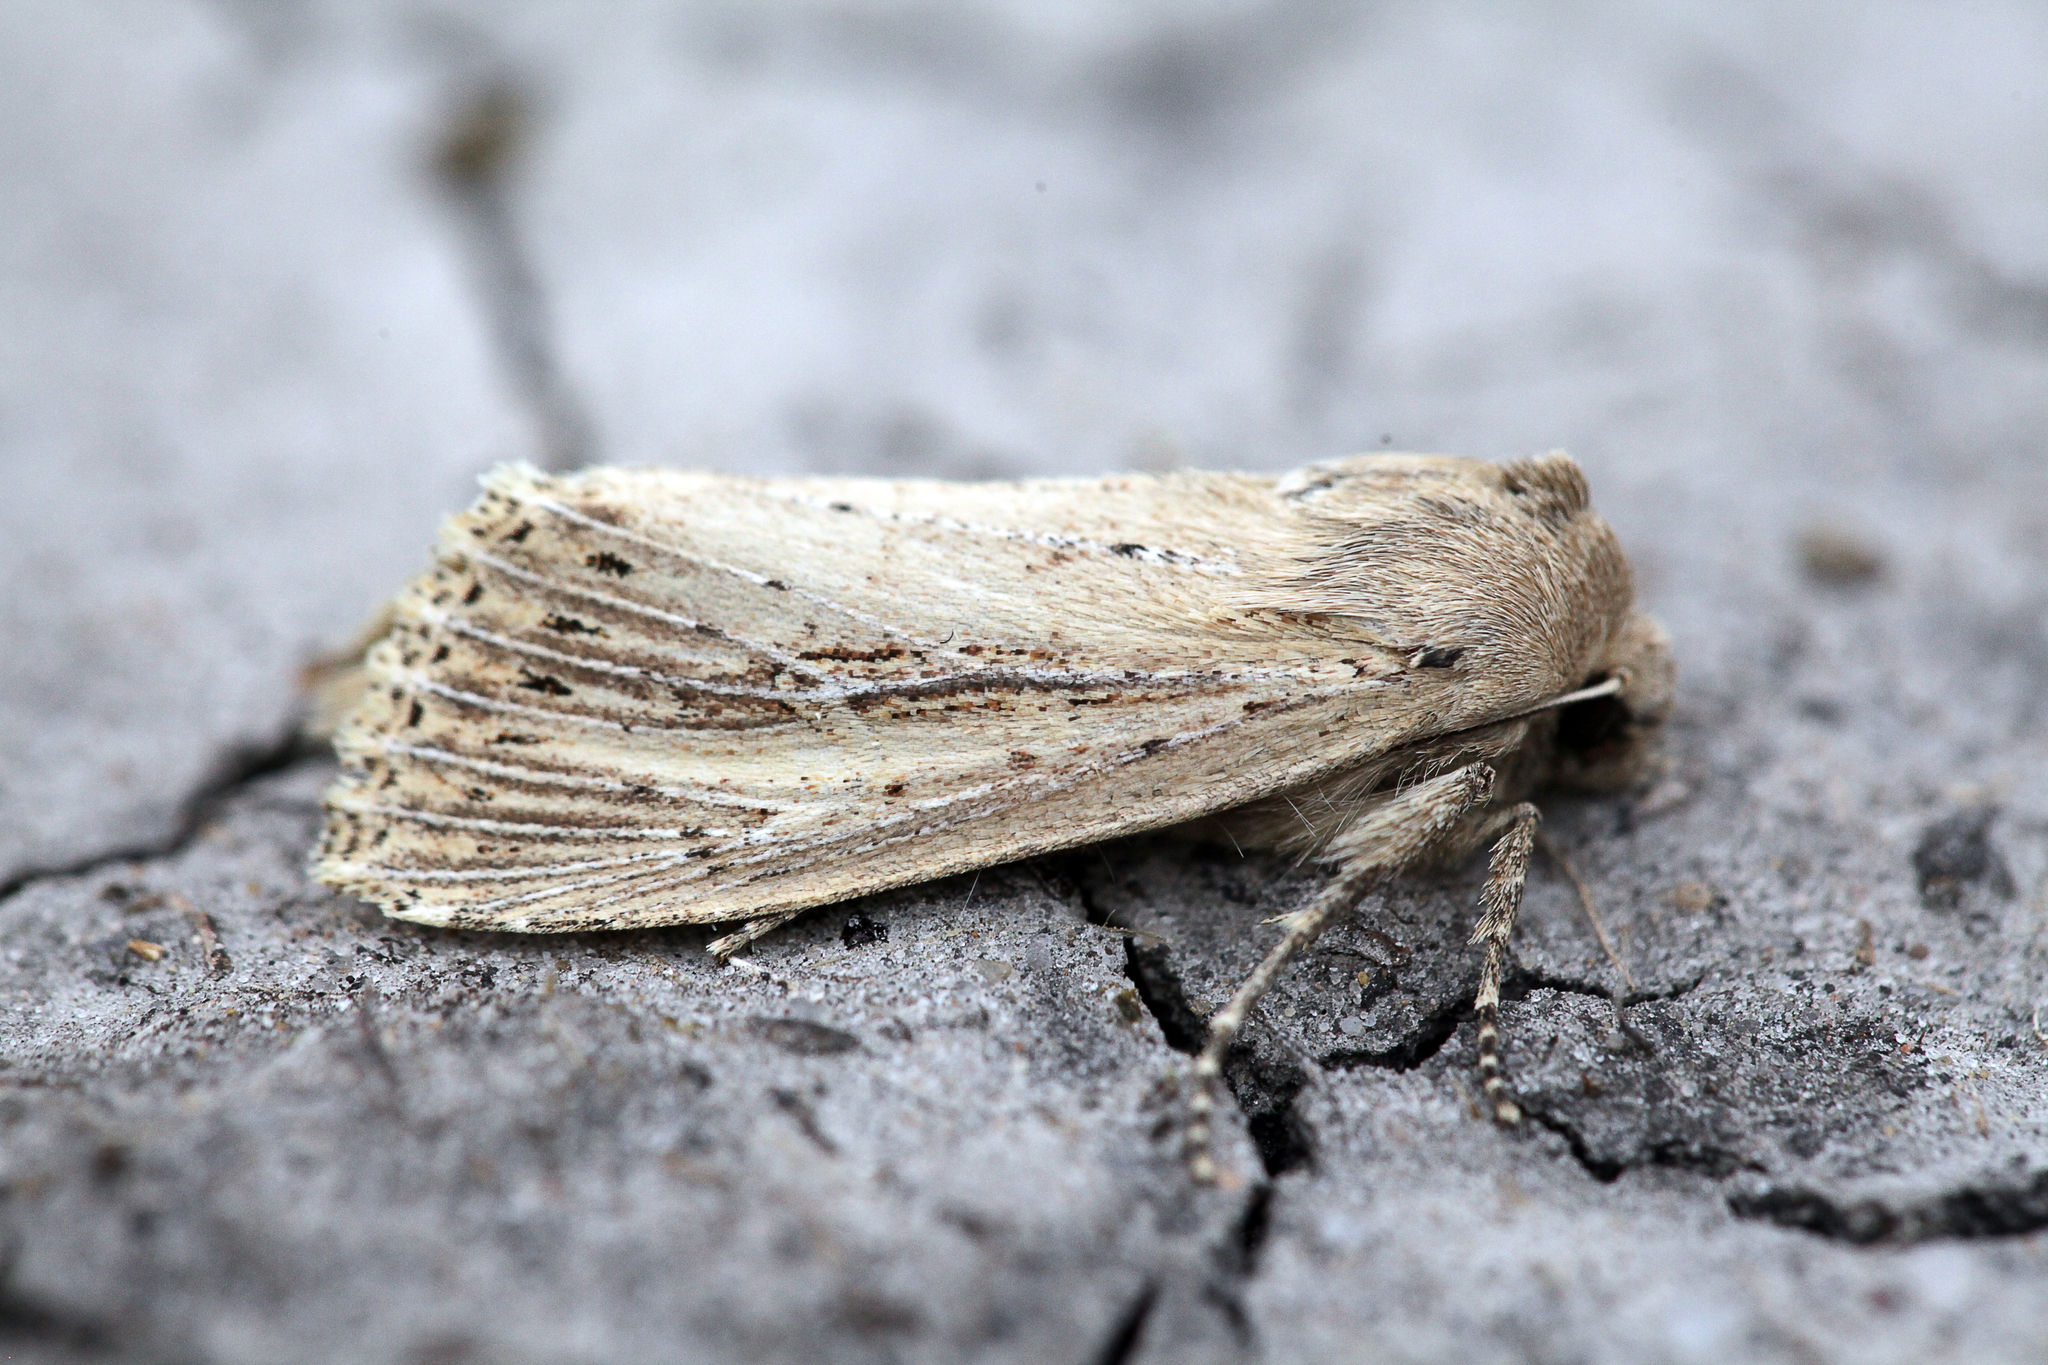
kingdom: Animalia
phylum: Arthropoda
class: Insecta
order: Lepidoptera
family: Noctuidae
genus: Nonagria
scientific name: Nonagria typhae
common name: Bulrush wainscot
